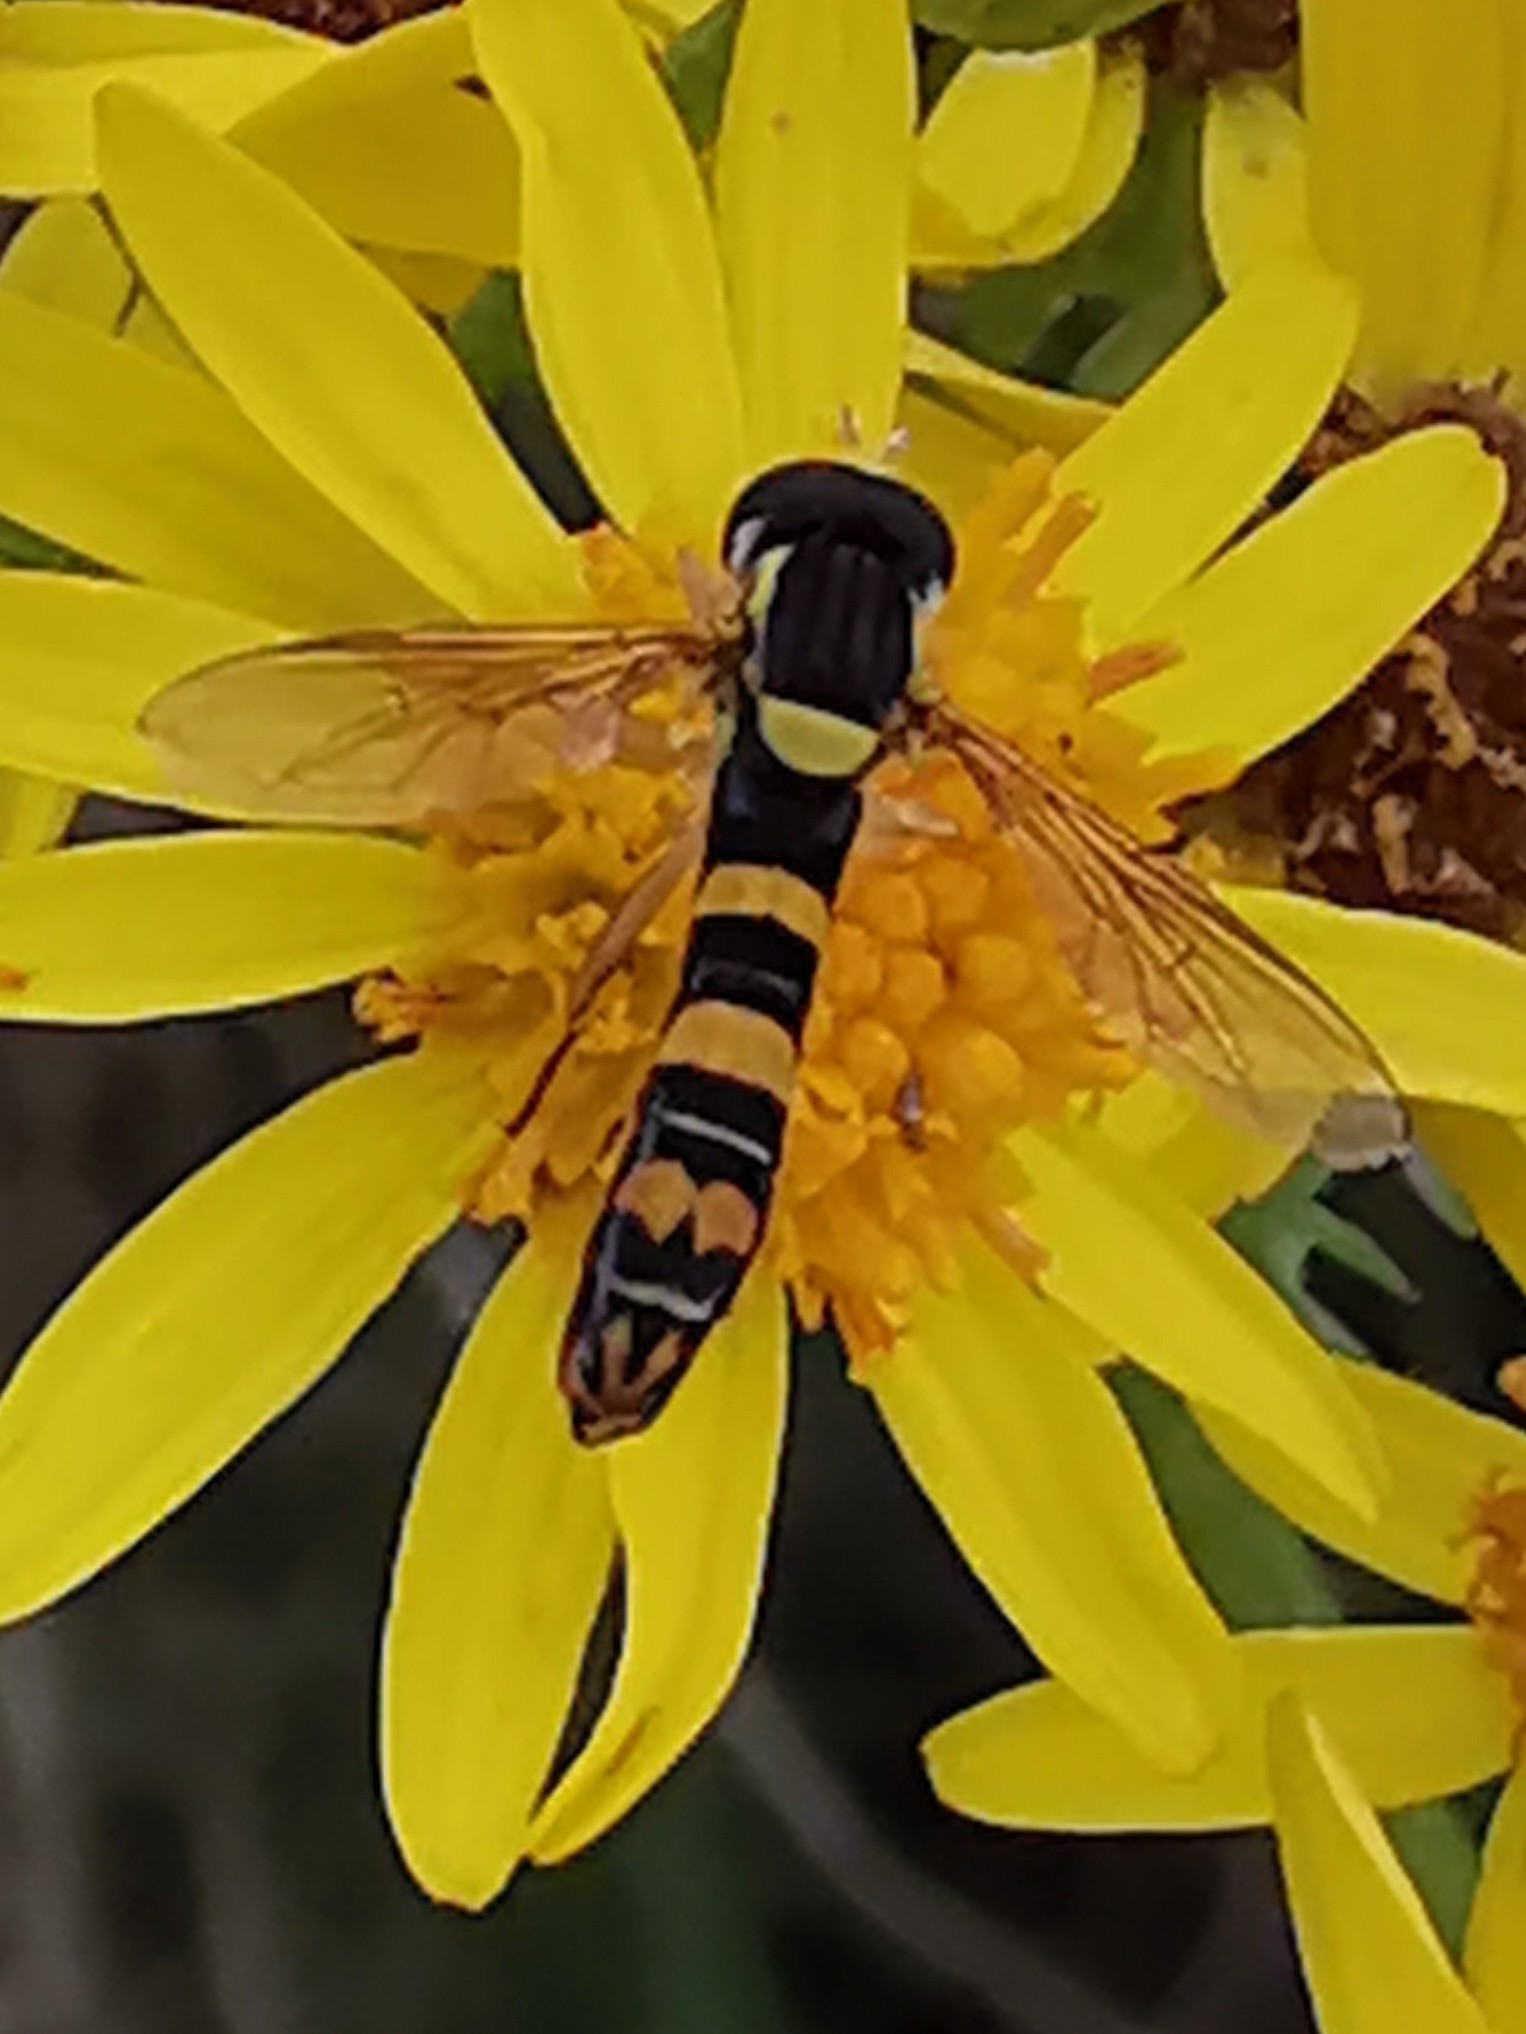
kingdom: Animalia
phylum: Arthropoda
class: Insecta
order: Diptera
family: Syrphidae
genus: Sphaerophoria
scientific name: Sphaerophoria scripta
